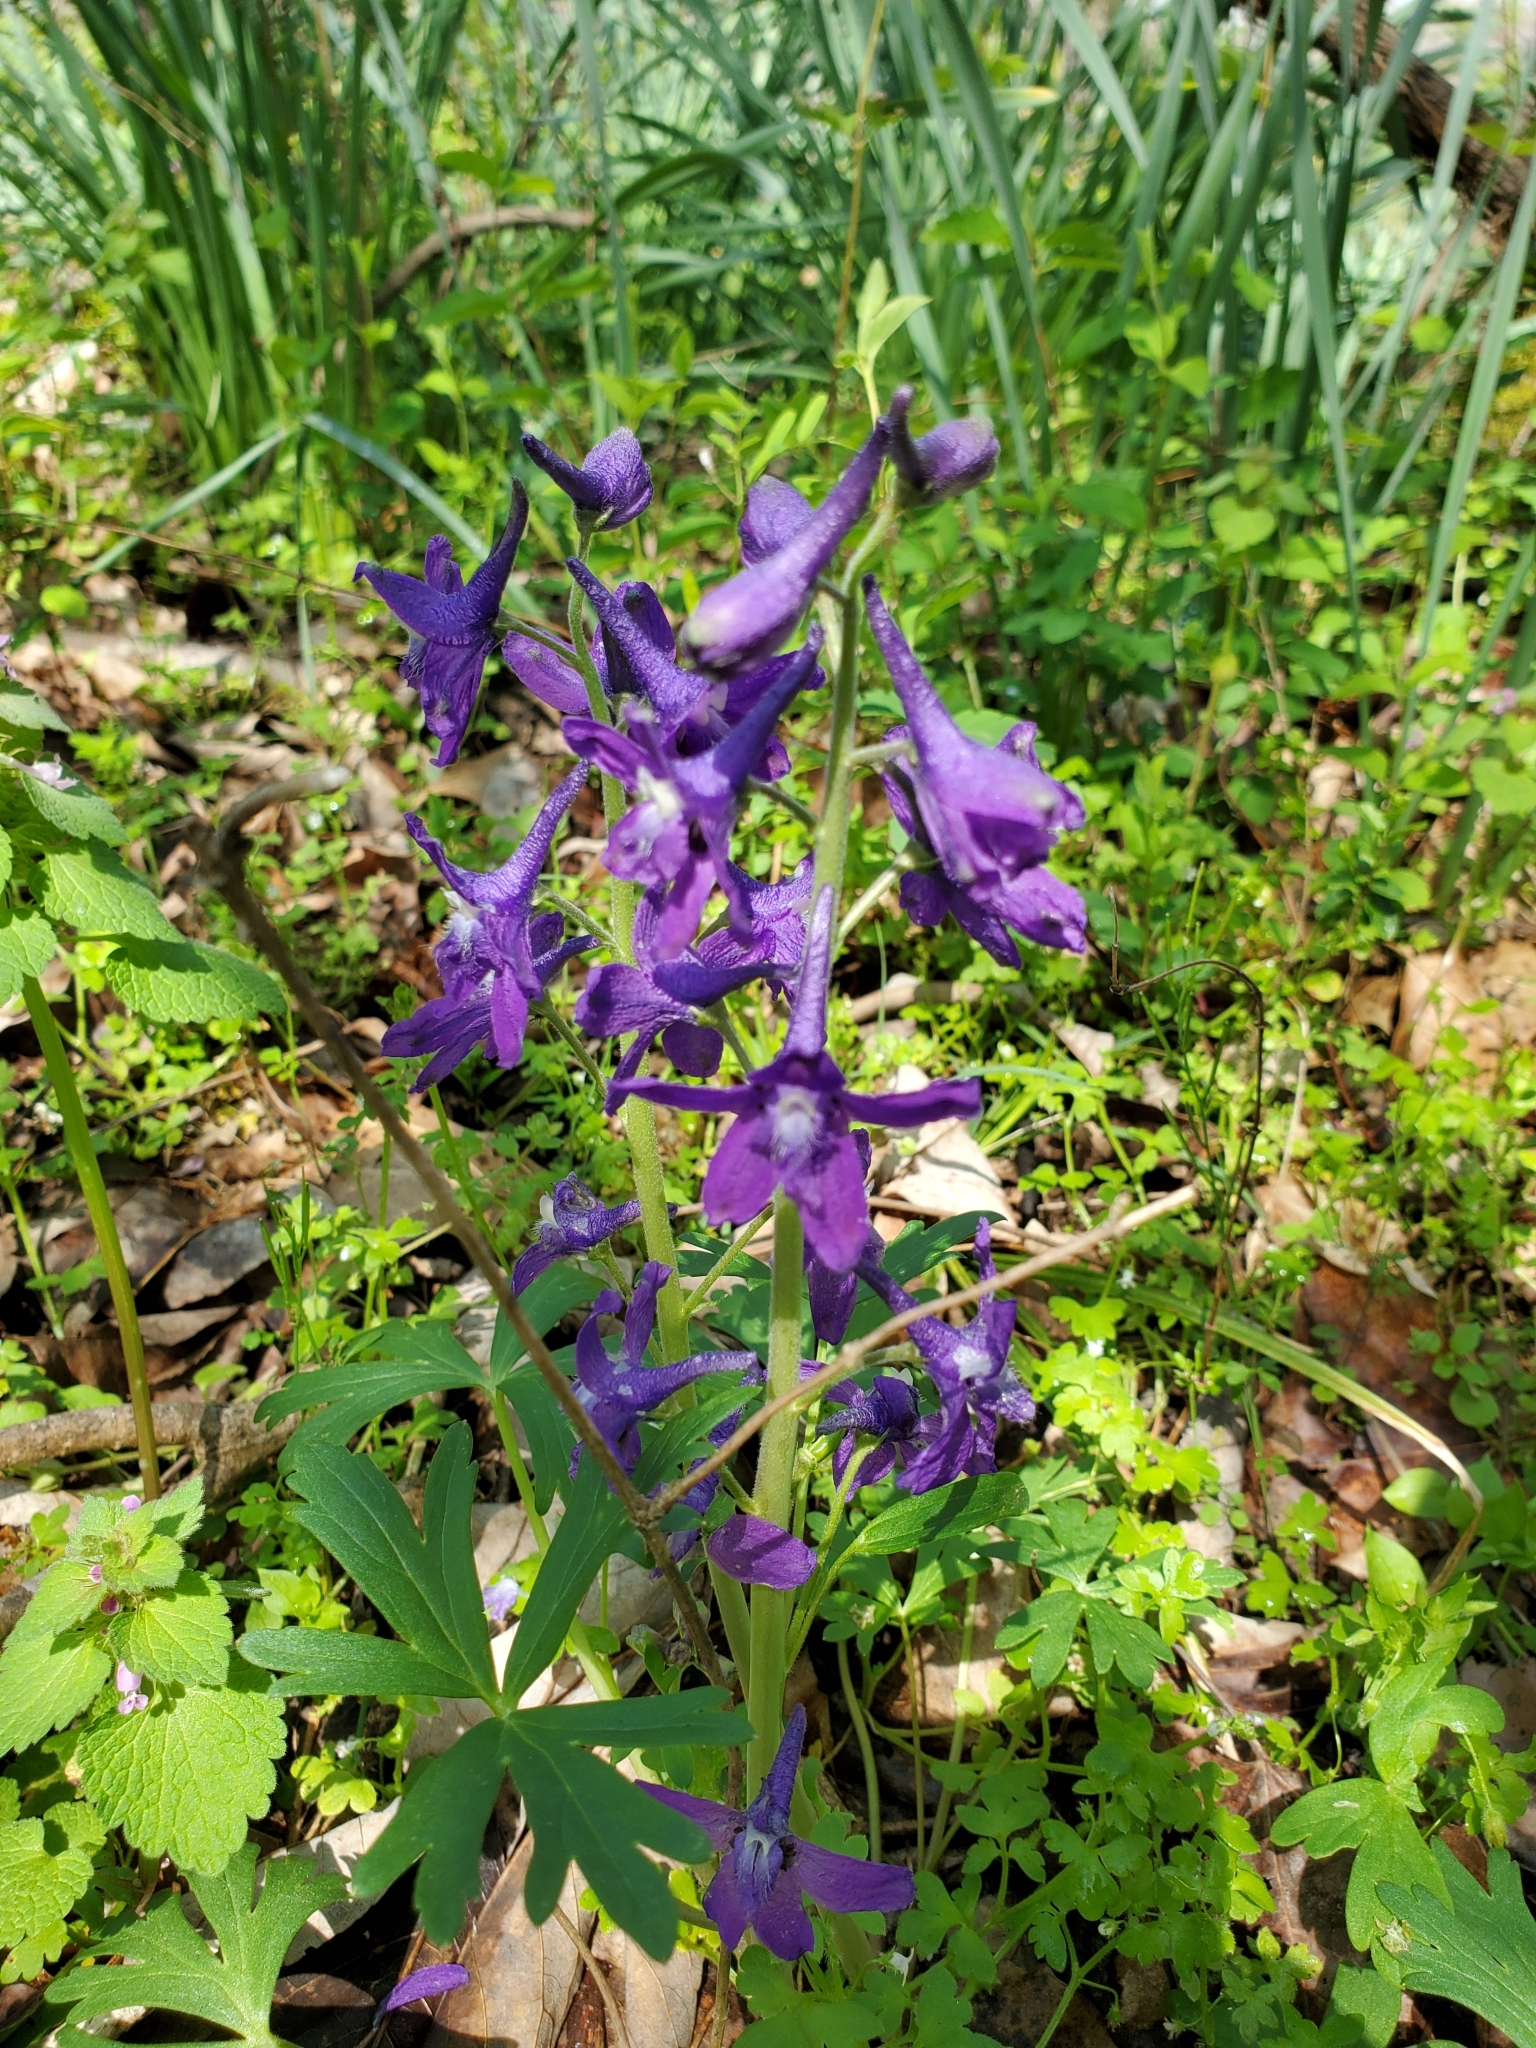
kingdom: Plantae
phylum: Tracheophyta
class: Magnoliopsida
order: Ranunculales
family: Ranunculaceae
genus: Delphinium
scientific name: Delphinium tricorne
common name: Dwarf larkspur
